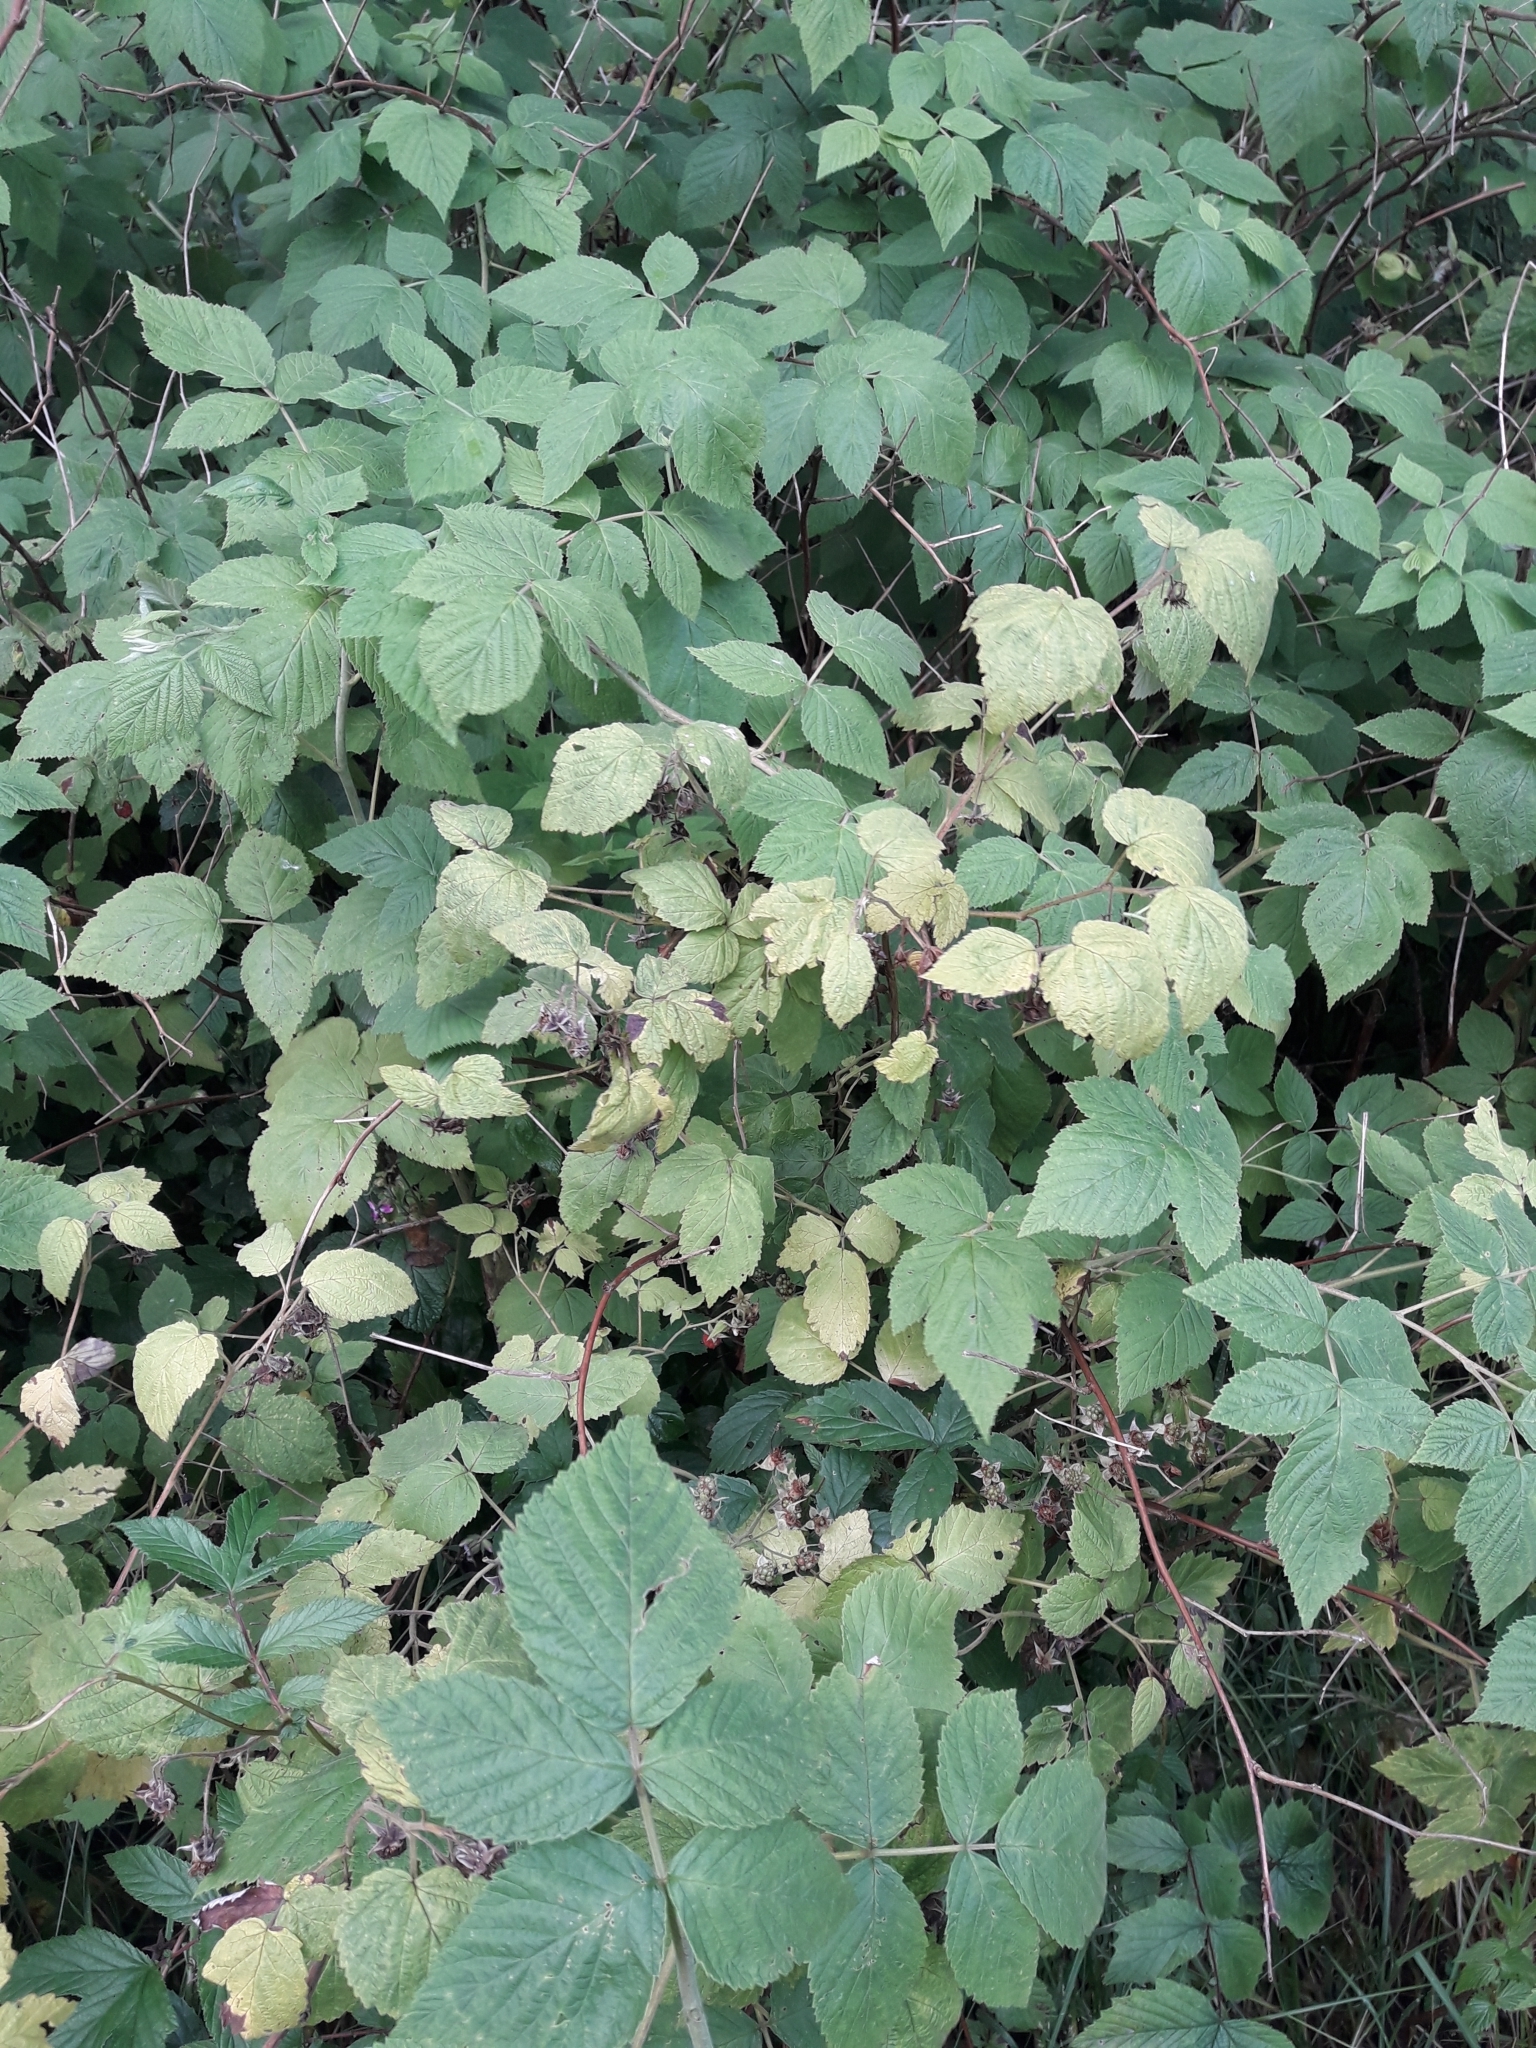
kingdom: Plantae
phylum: Tracheophyta
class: Magnoliopsida
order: Rosales
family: Rosaceae
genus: Rubus
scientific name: Rubus idaeus
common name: Raspberry
